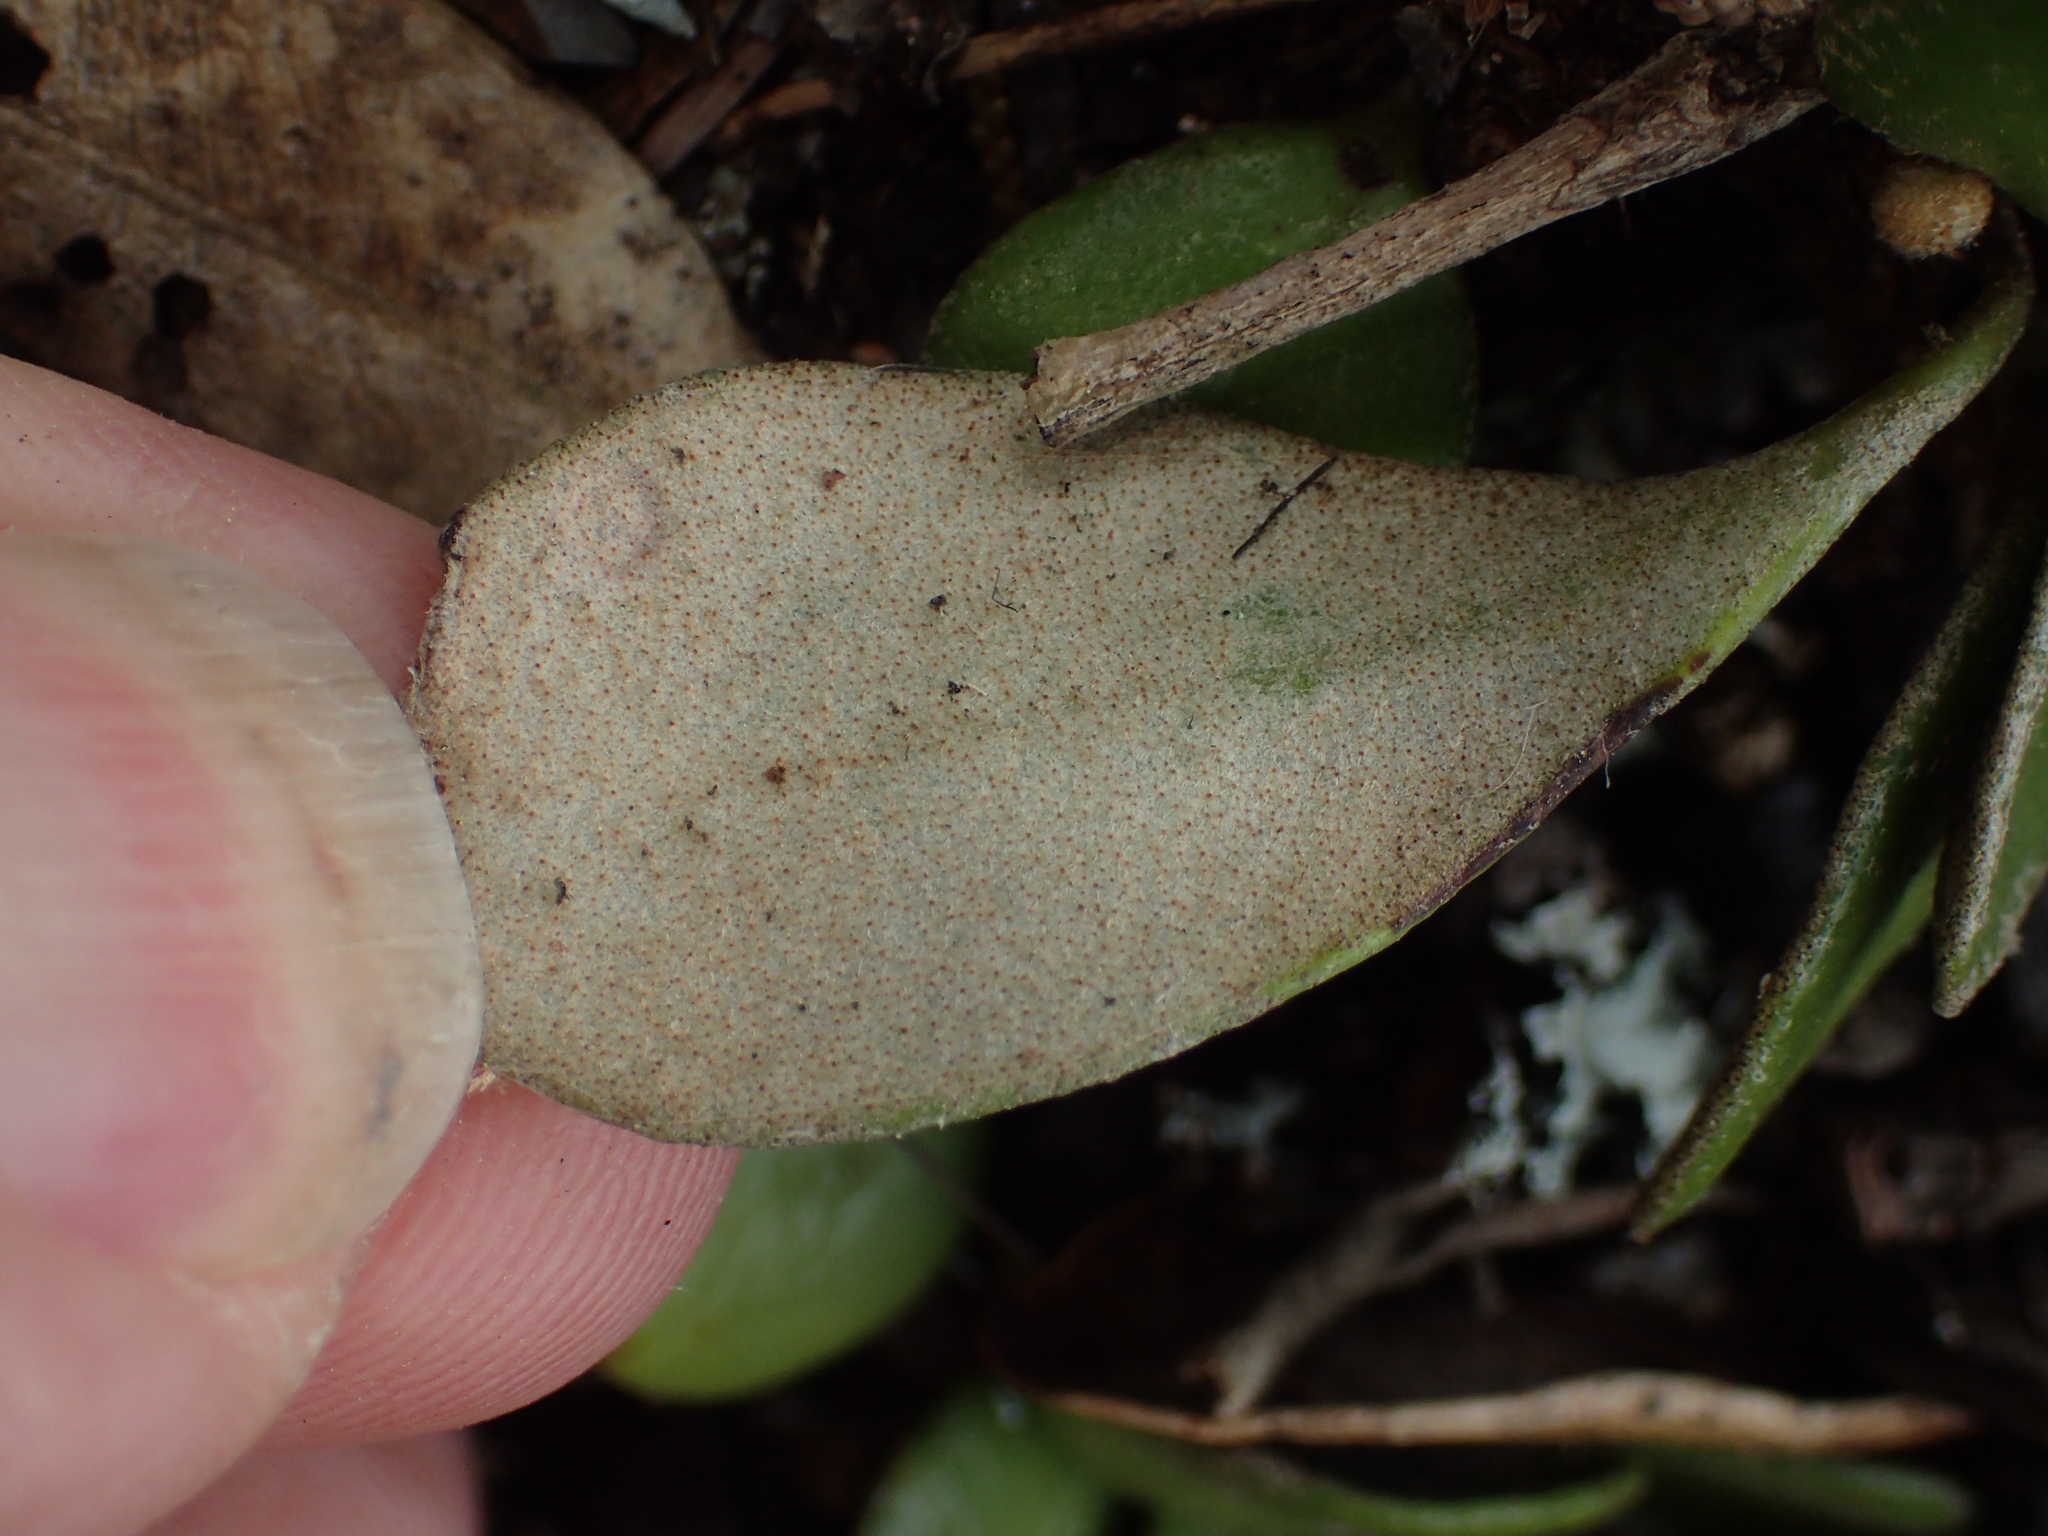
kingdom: Plantae
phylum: Tracheophyta
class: Polypodiopsida
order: Polypodiales
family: Polypodiaceae
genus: Pyrrosia
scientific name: Pyrrosia eleagnifolia
